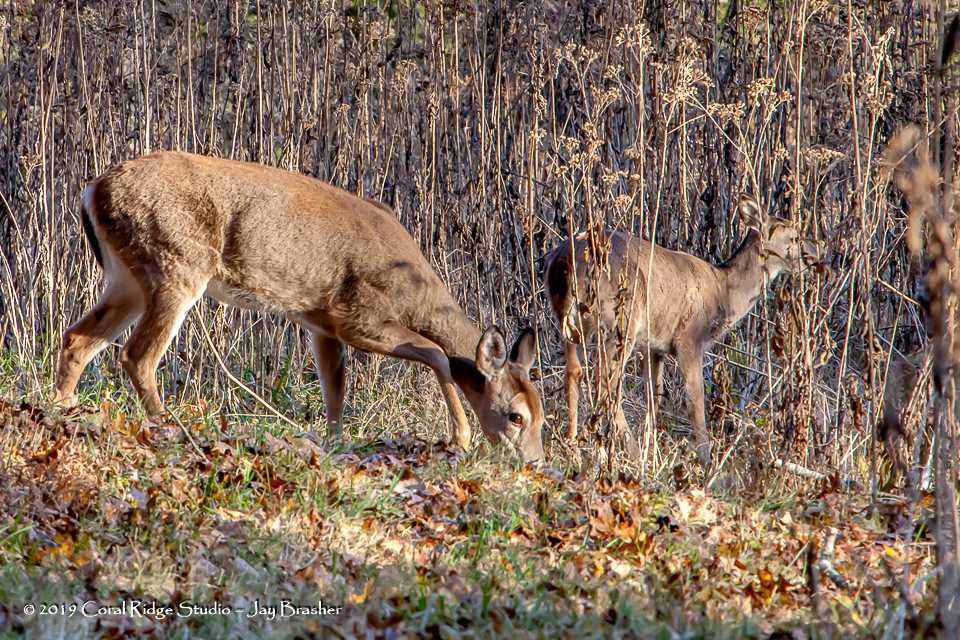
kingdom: Animalia
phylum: Chordata
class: Mammalia
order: Artiodactyla
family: Cervidae
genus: Odocoileus
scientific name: Odocoileus virginianus
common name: White-tailed deer
